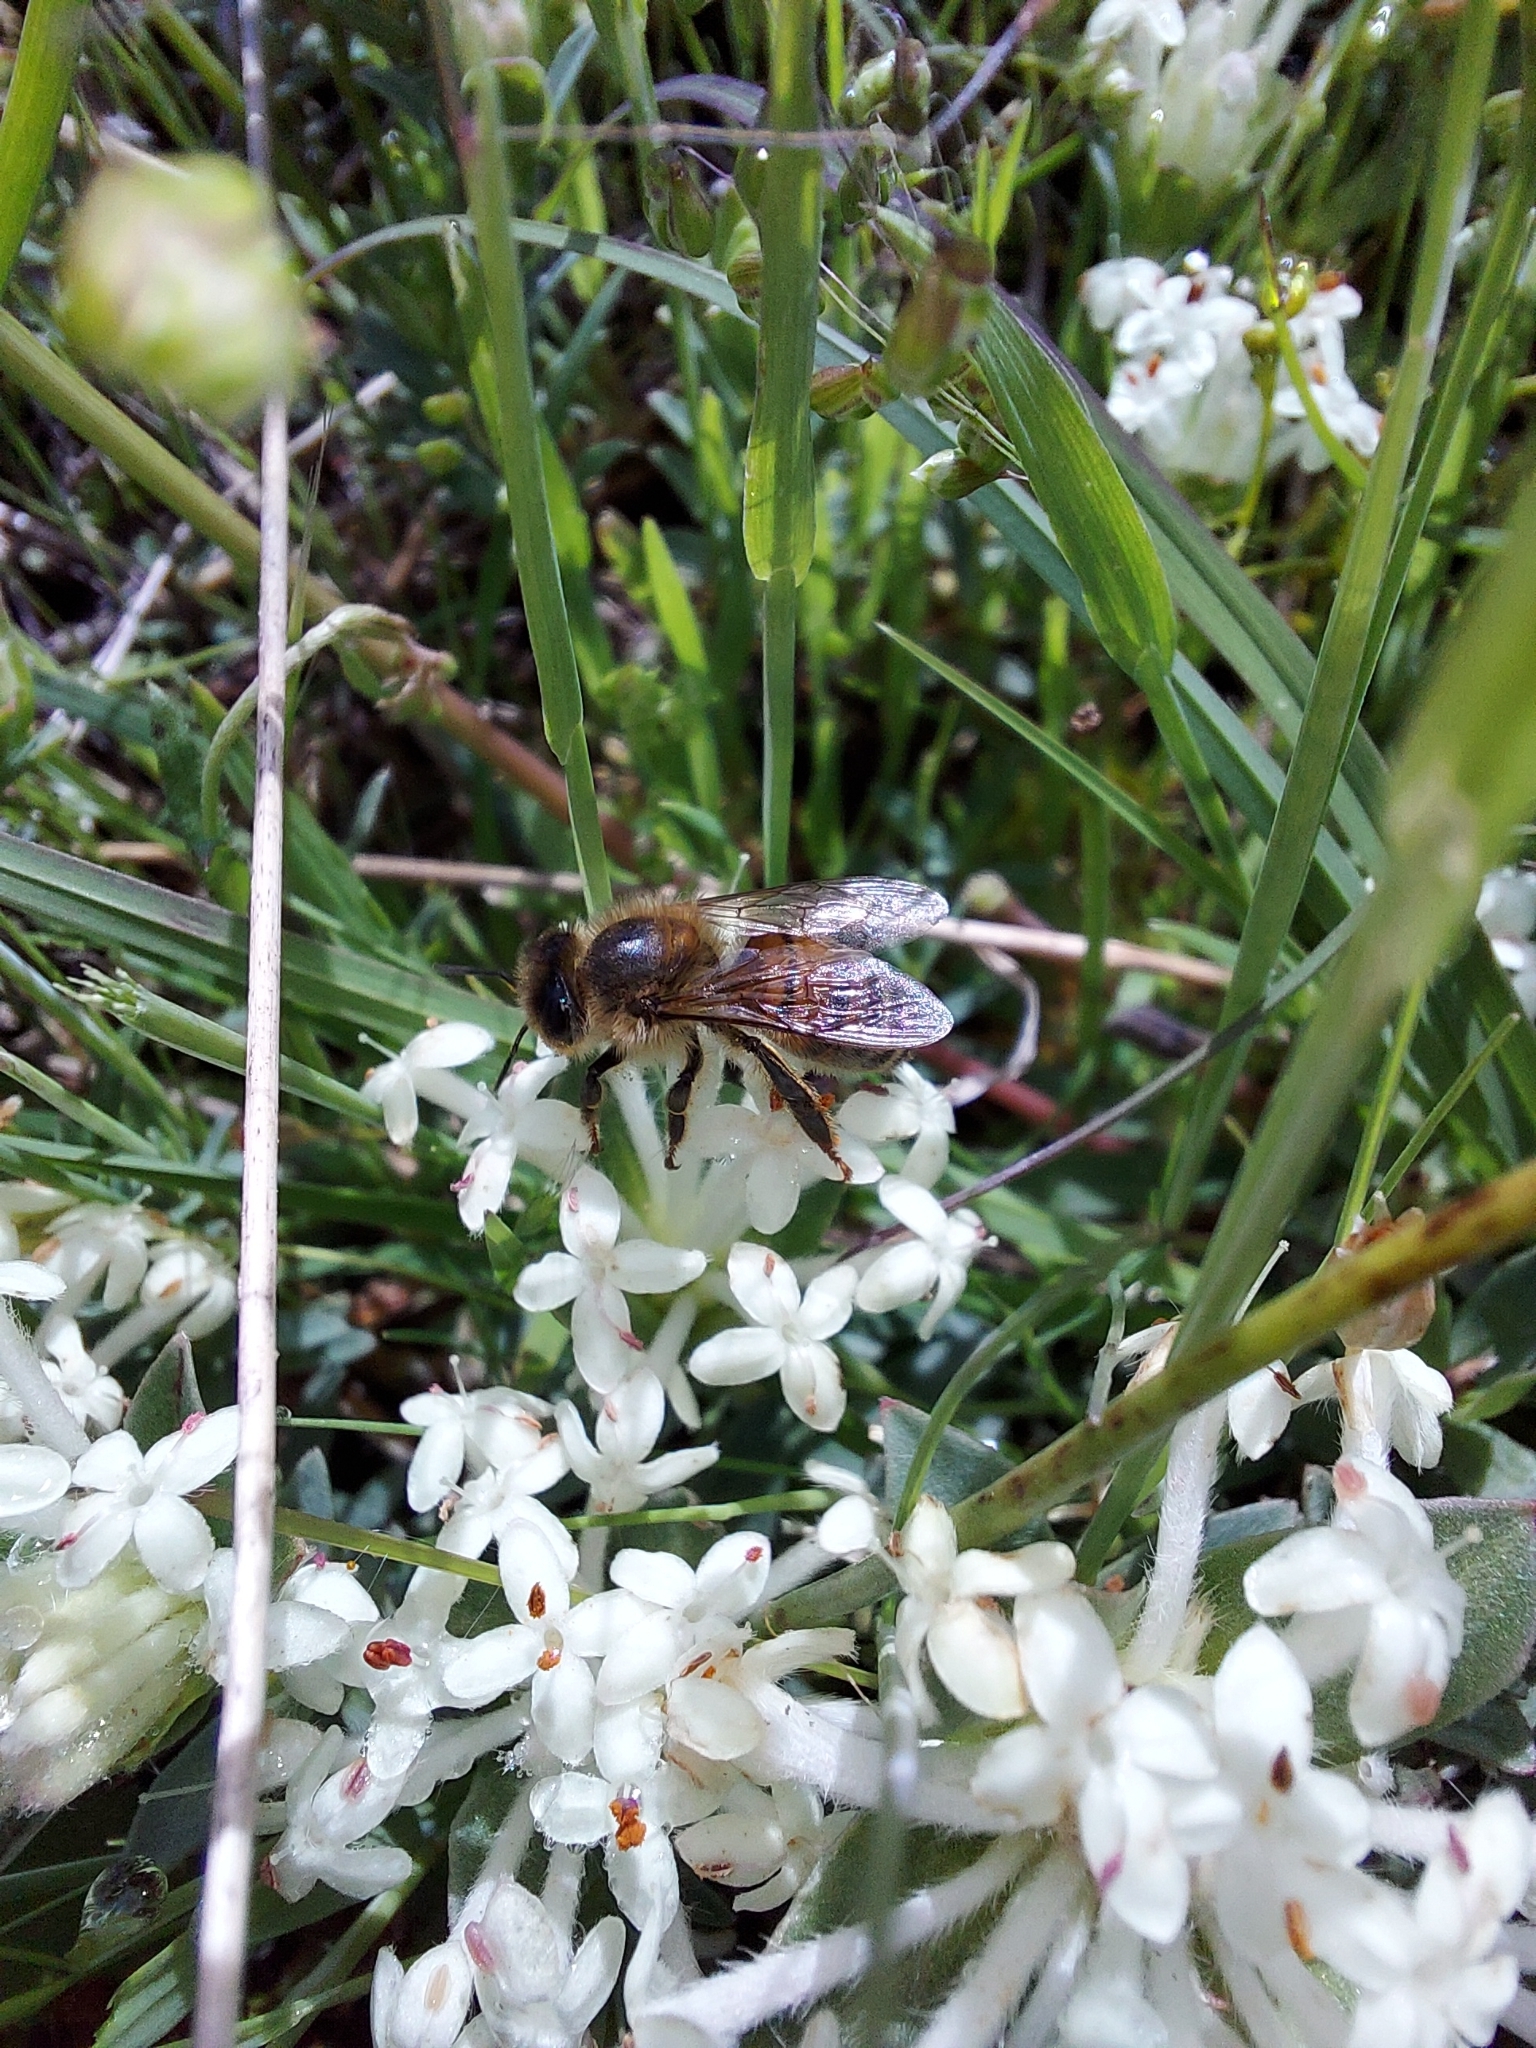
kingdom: Animalia
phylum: Arthropoda
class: Insecta
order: Hymenoptera
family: Apidae
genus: Apis
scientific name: Apis mellifera
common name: Honey bee
